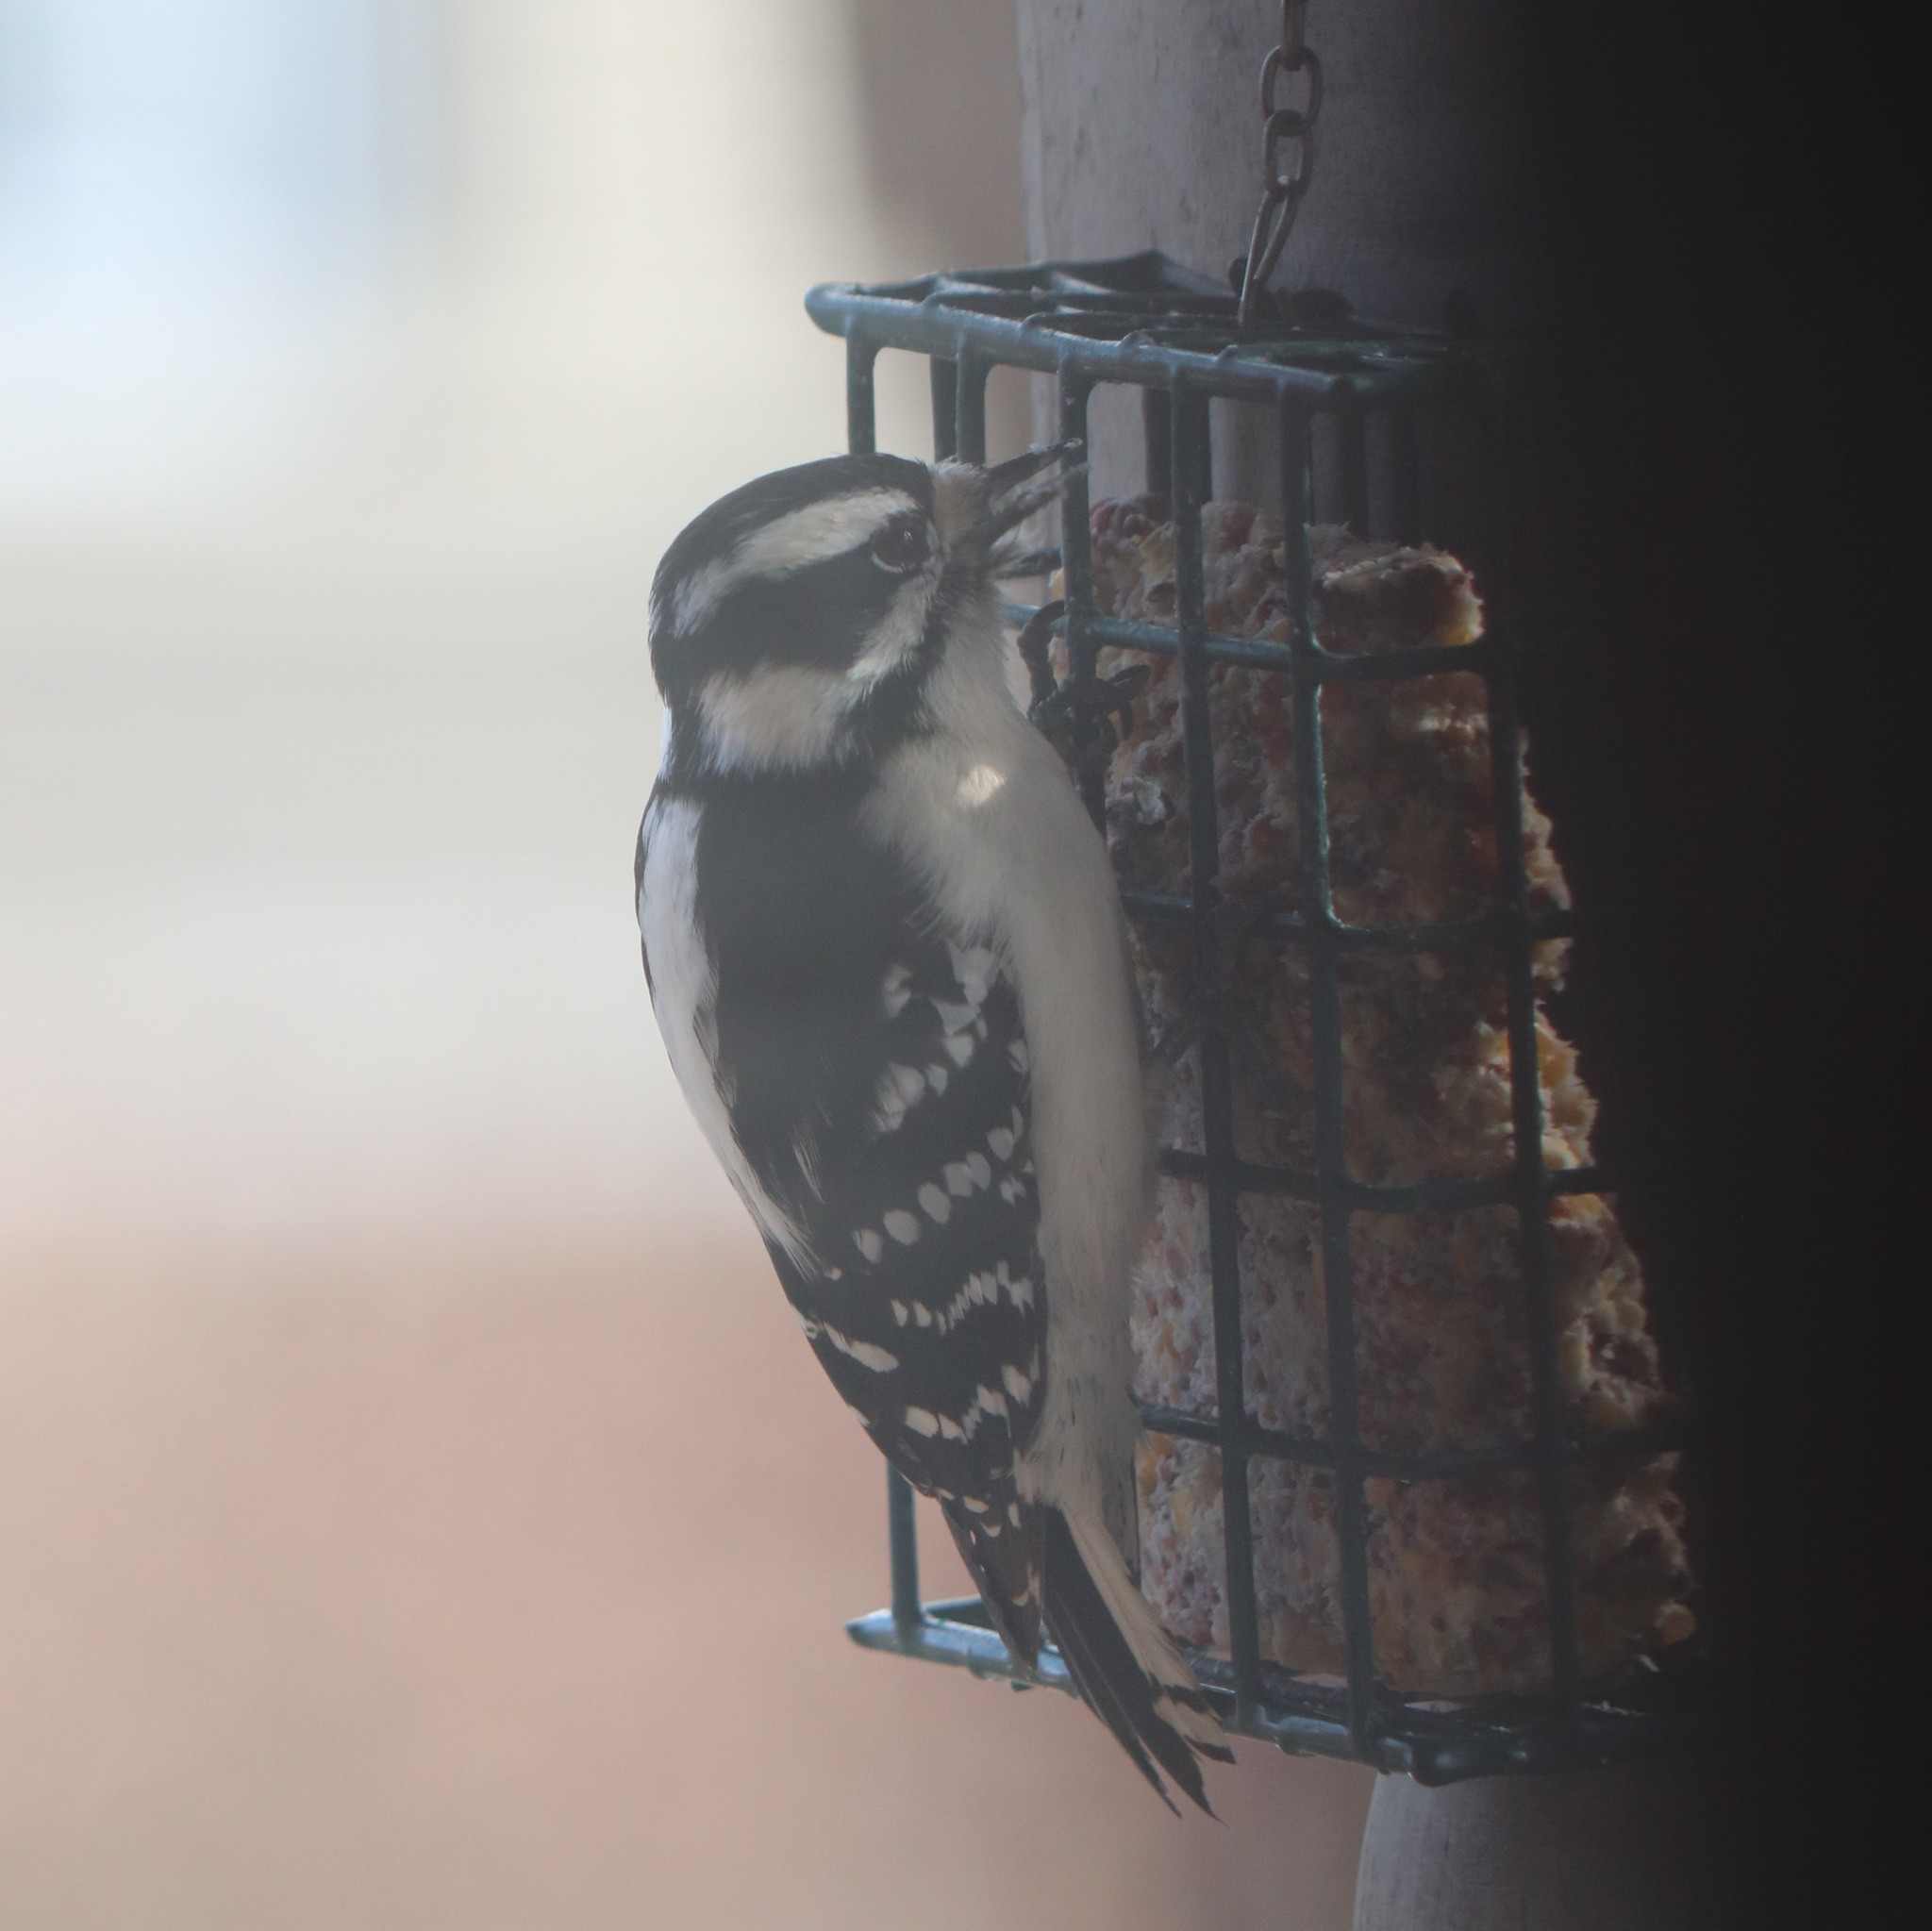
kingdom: Animalia
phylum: Chordata
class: Aves
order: Piciformes
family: Picidae
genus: Dryobates
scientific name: Dryobates pubescens
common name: Downy woodpecker
